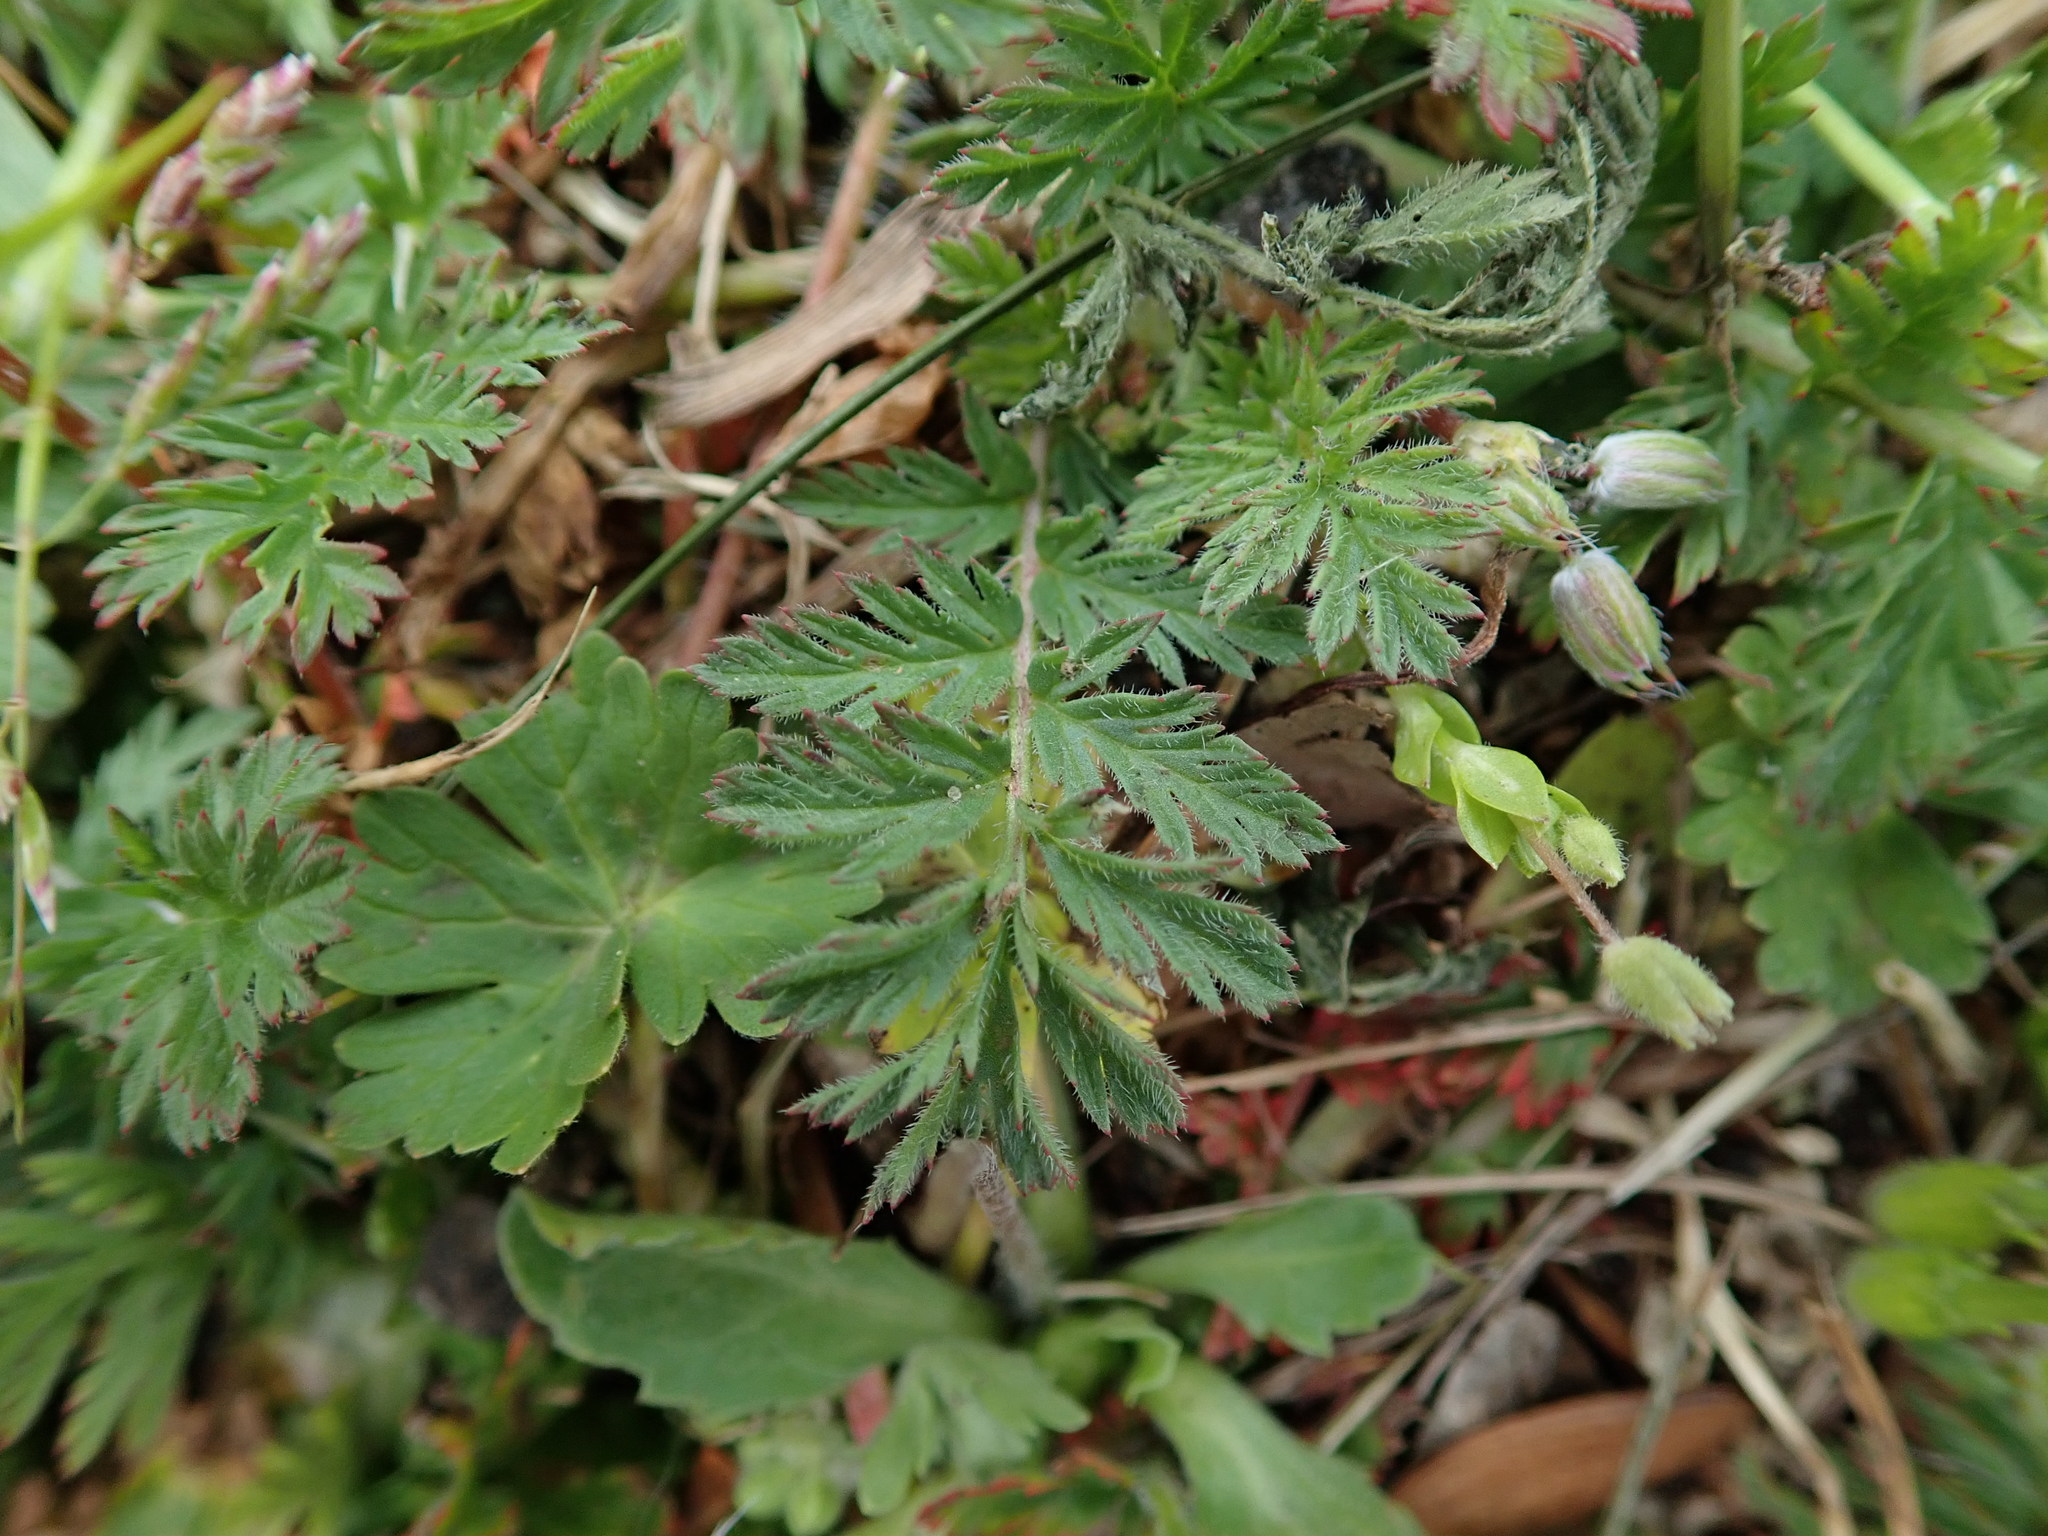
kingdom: Plantae
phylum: Tracheophyta
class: Magnoliopsida
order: Geraniales
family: Geraniaceae
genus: Erodium
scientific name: Erodium cicutarium
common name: Common stork's-bill
